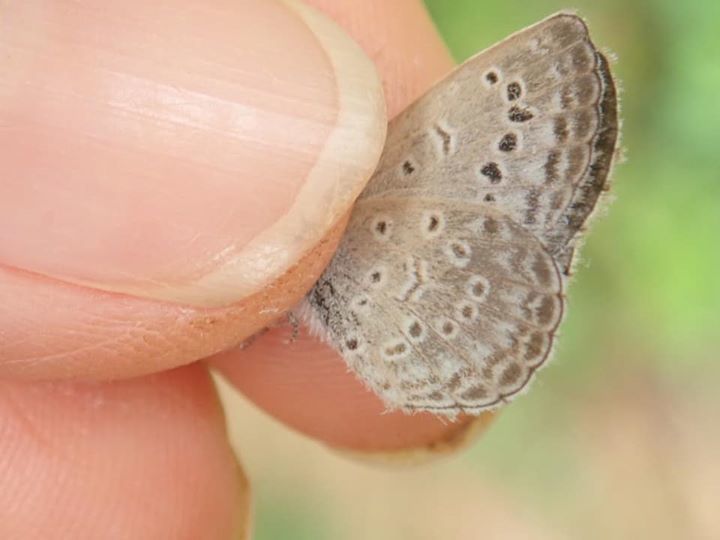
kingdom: Animalia
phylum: Arthropoda
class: Insecta
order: Lepidoptera
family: Lycaenidae
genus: Pseudozizeeria
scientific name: Pseudozizeeria maha
